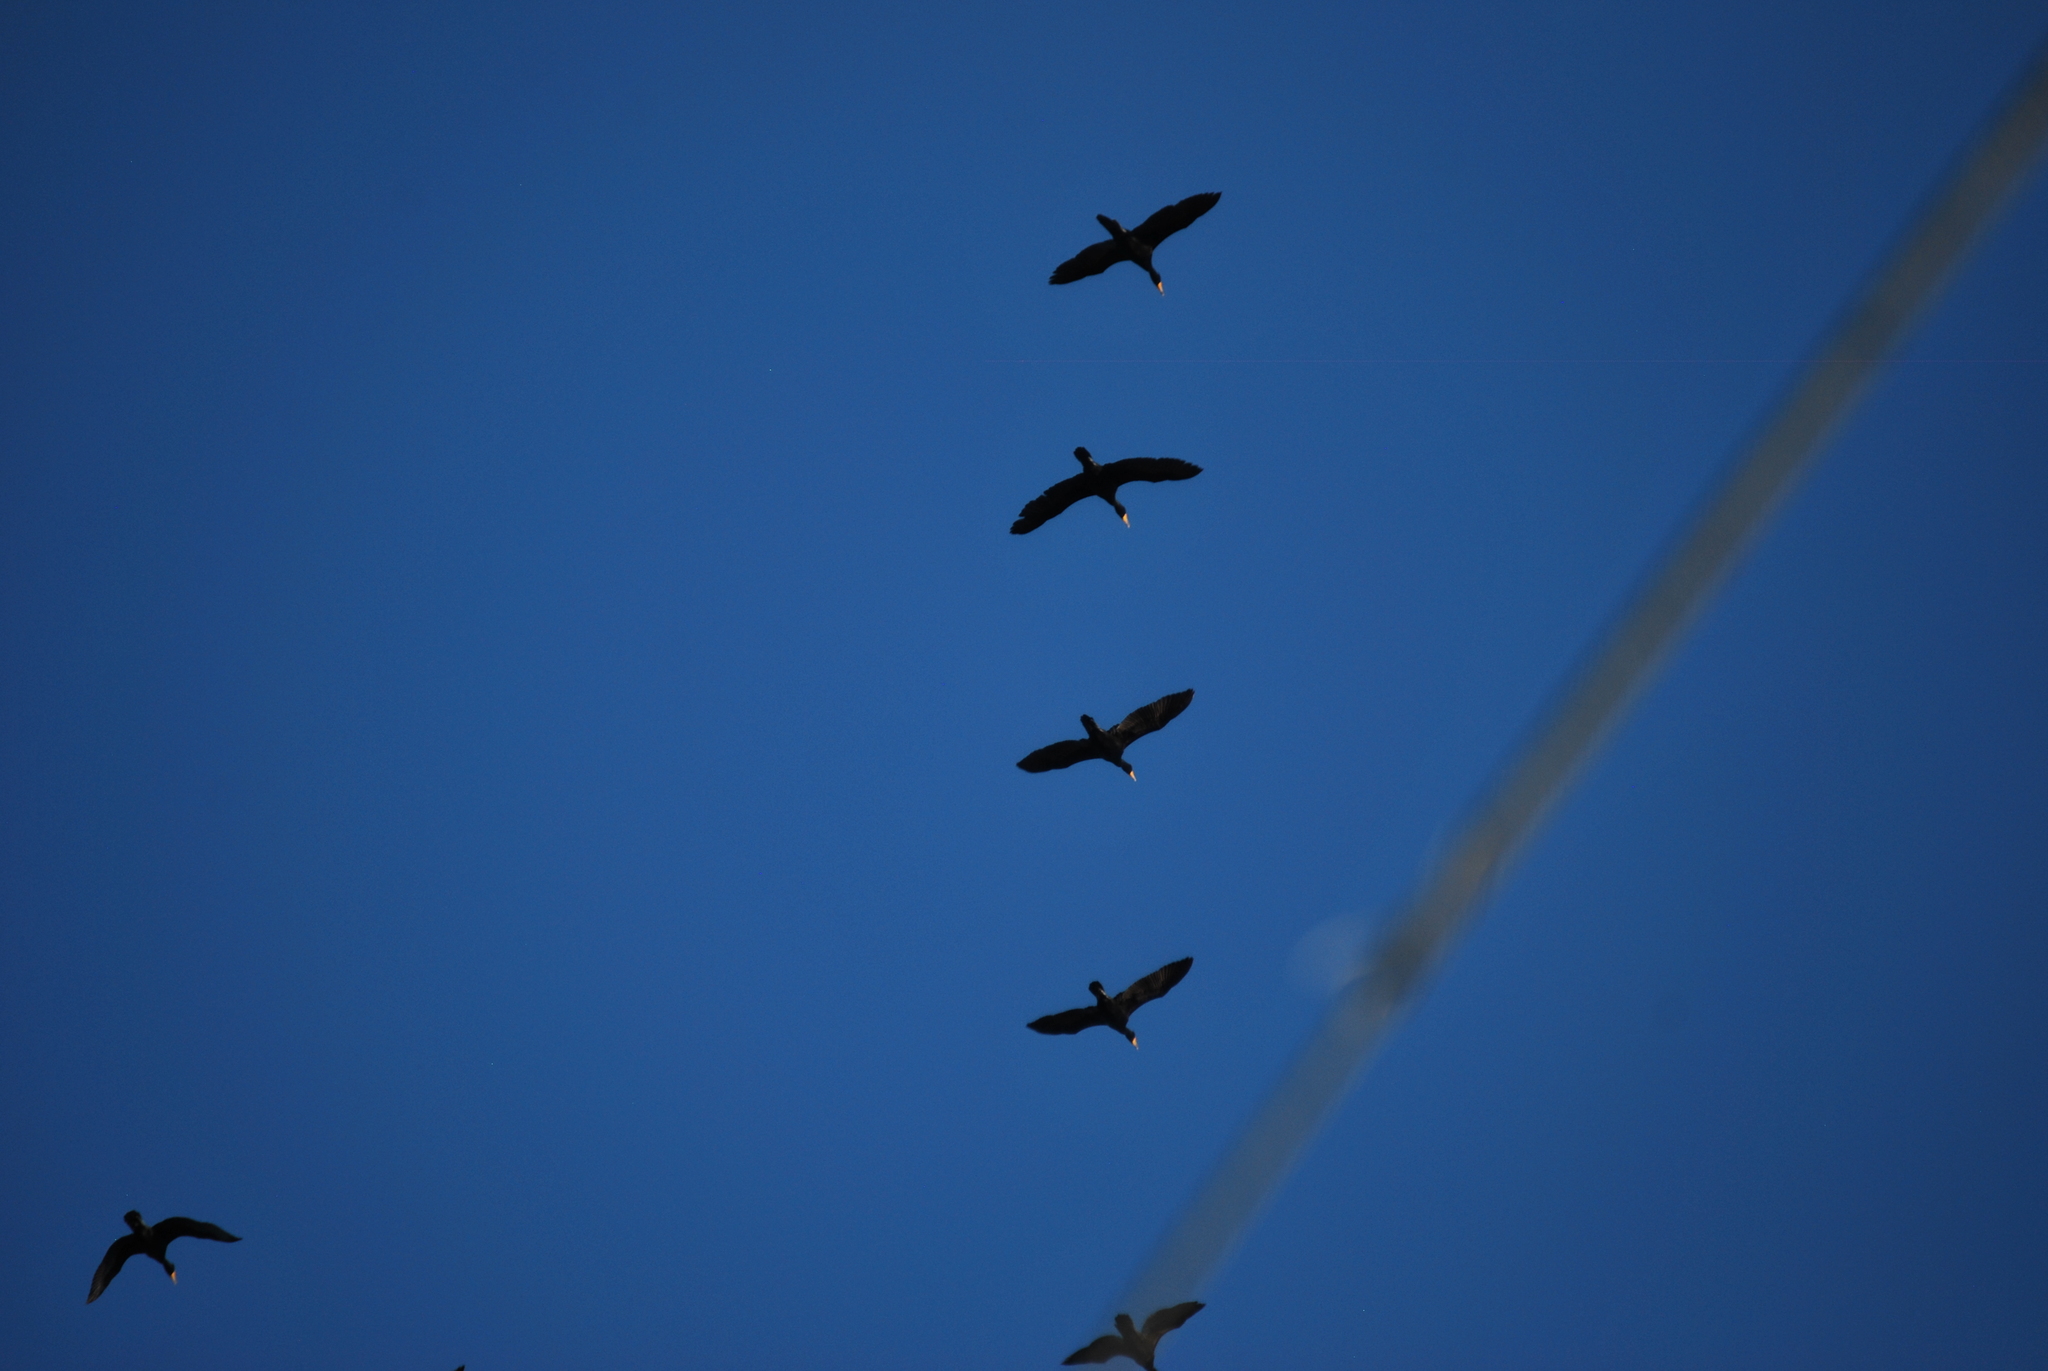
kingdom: Animalia
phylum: Chordata
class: Aves
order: Suliformes
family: Phalacrocoracidae
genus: Phalacrocorax
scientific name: Phalacrocorax auritus
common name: Double-crested cormorant
